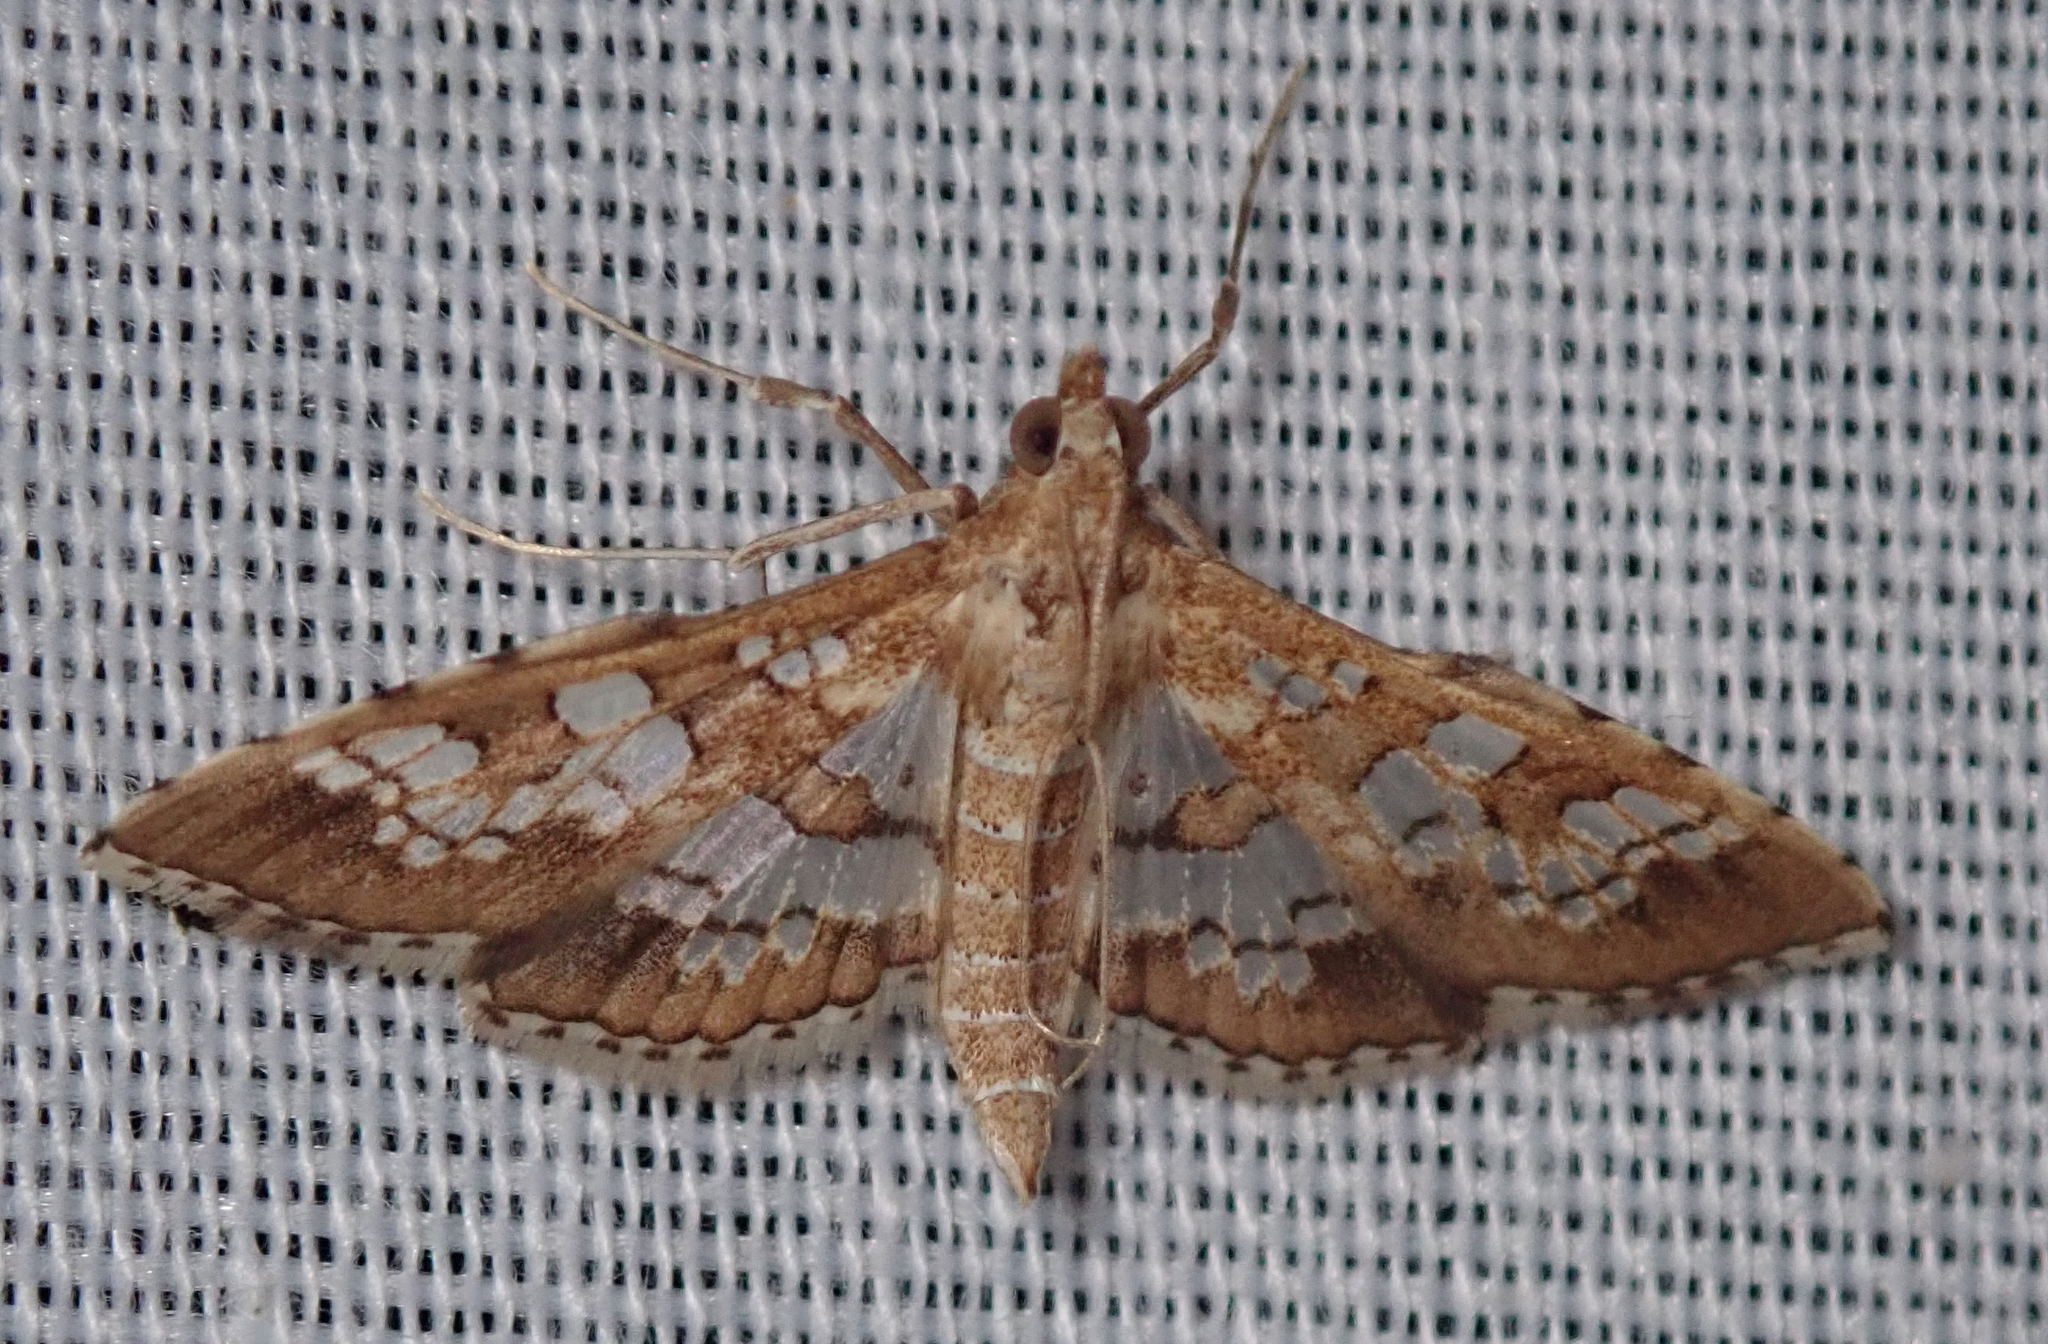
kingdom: Animalia
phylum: Arthropoda
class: Insecta
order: Lepidoptera
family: Crambidae
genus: Sameodes
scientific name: Sameodes cancellalis
